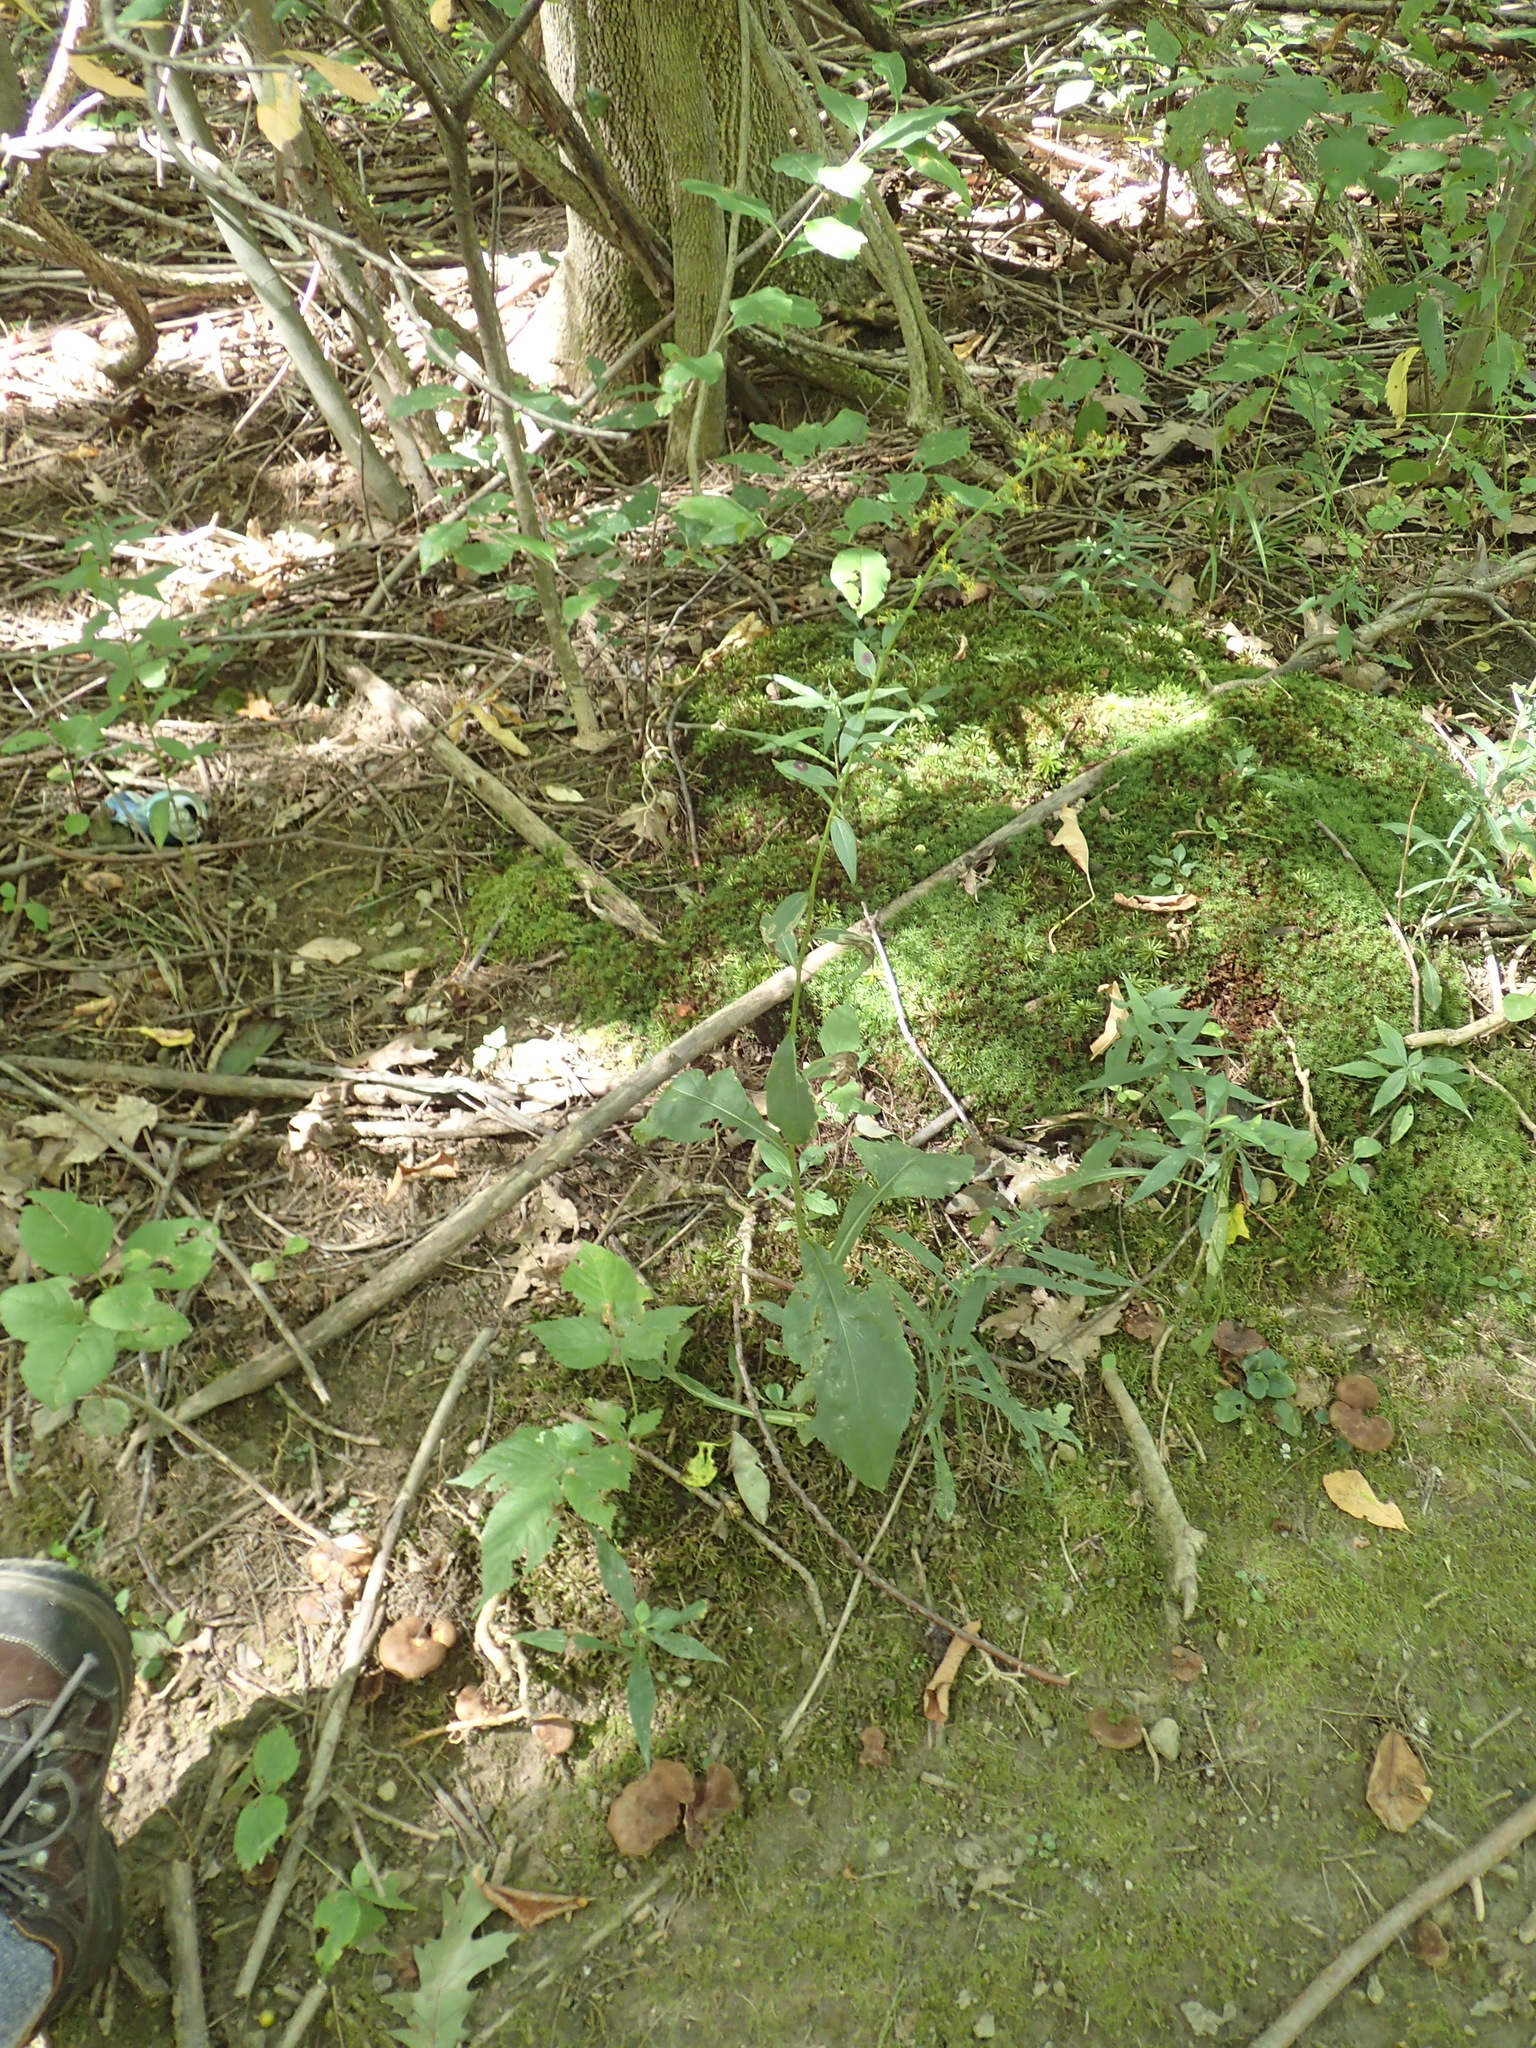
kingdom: Plantae
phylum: Tracheophyta
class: Magnoliopsida
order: Asterales
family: Asteraceae
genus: Solidago
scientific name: Solidago arguta
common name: Atlantic goldenrod
